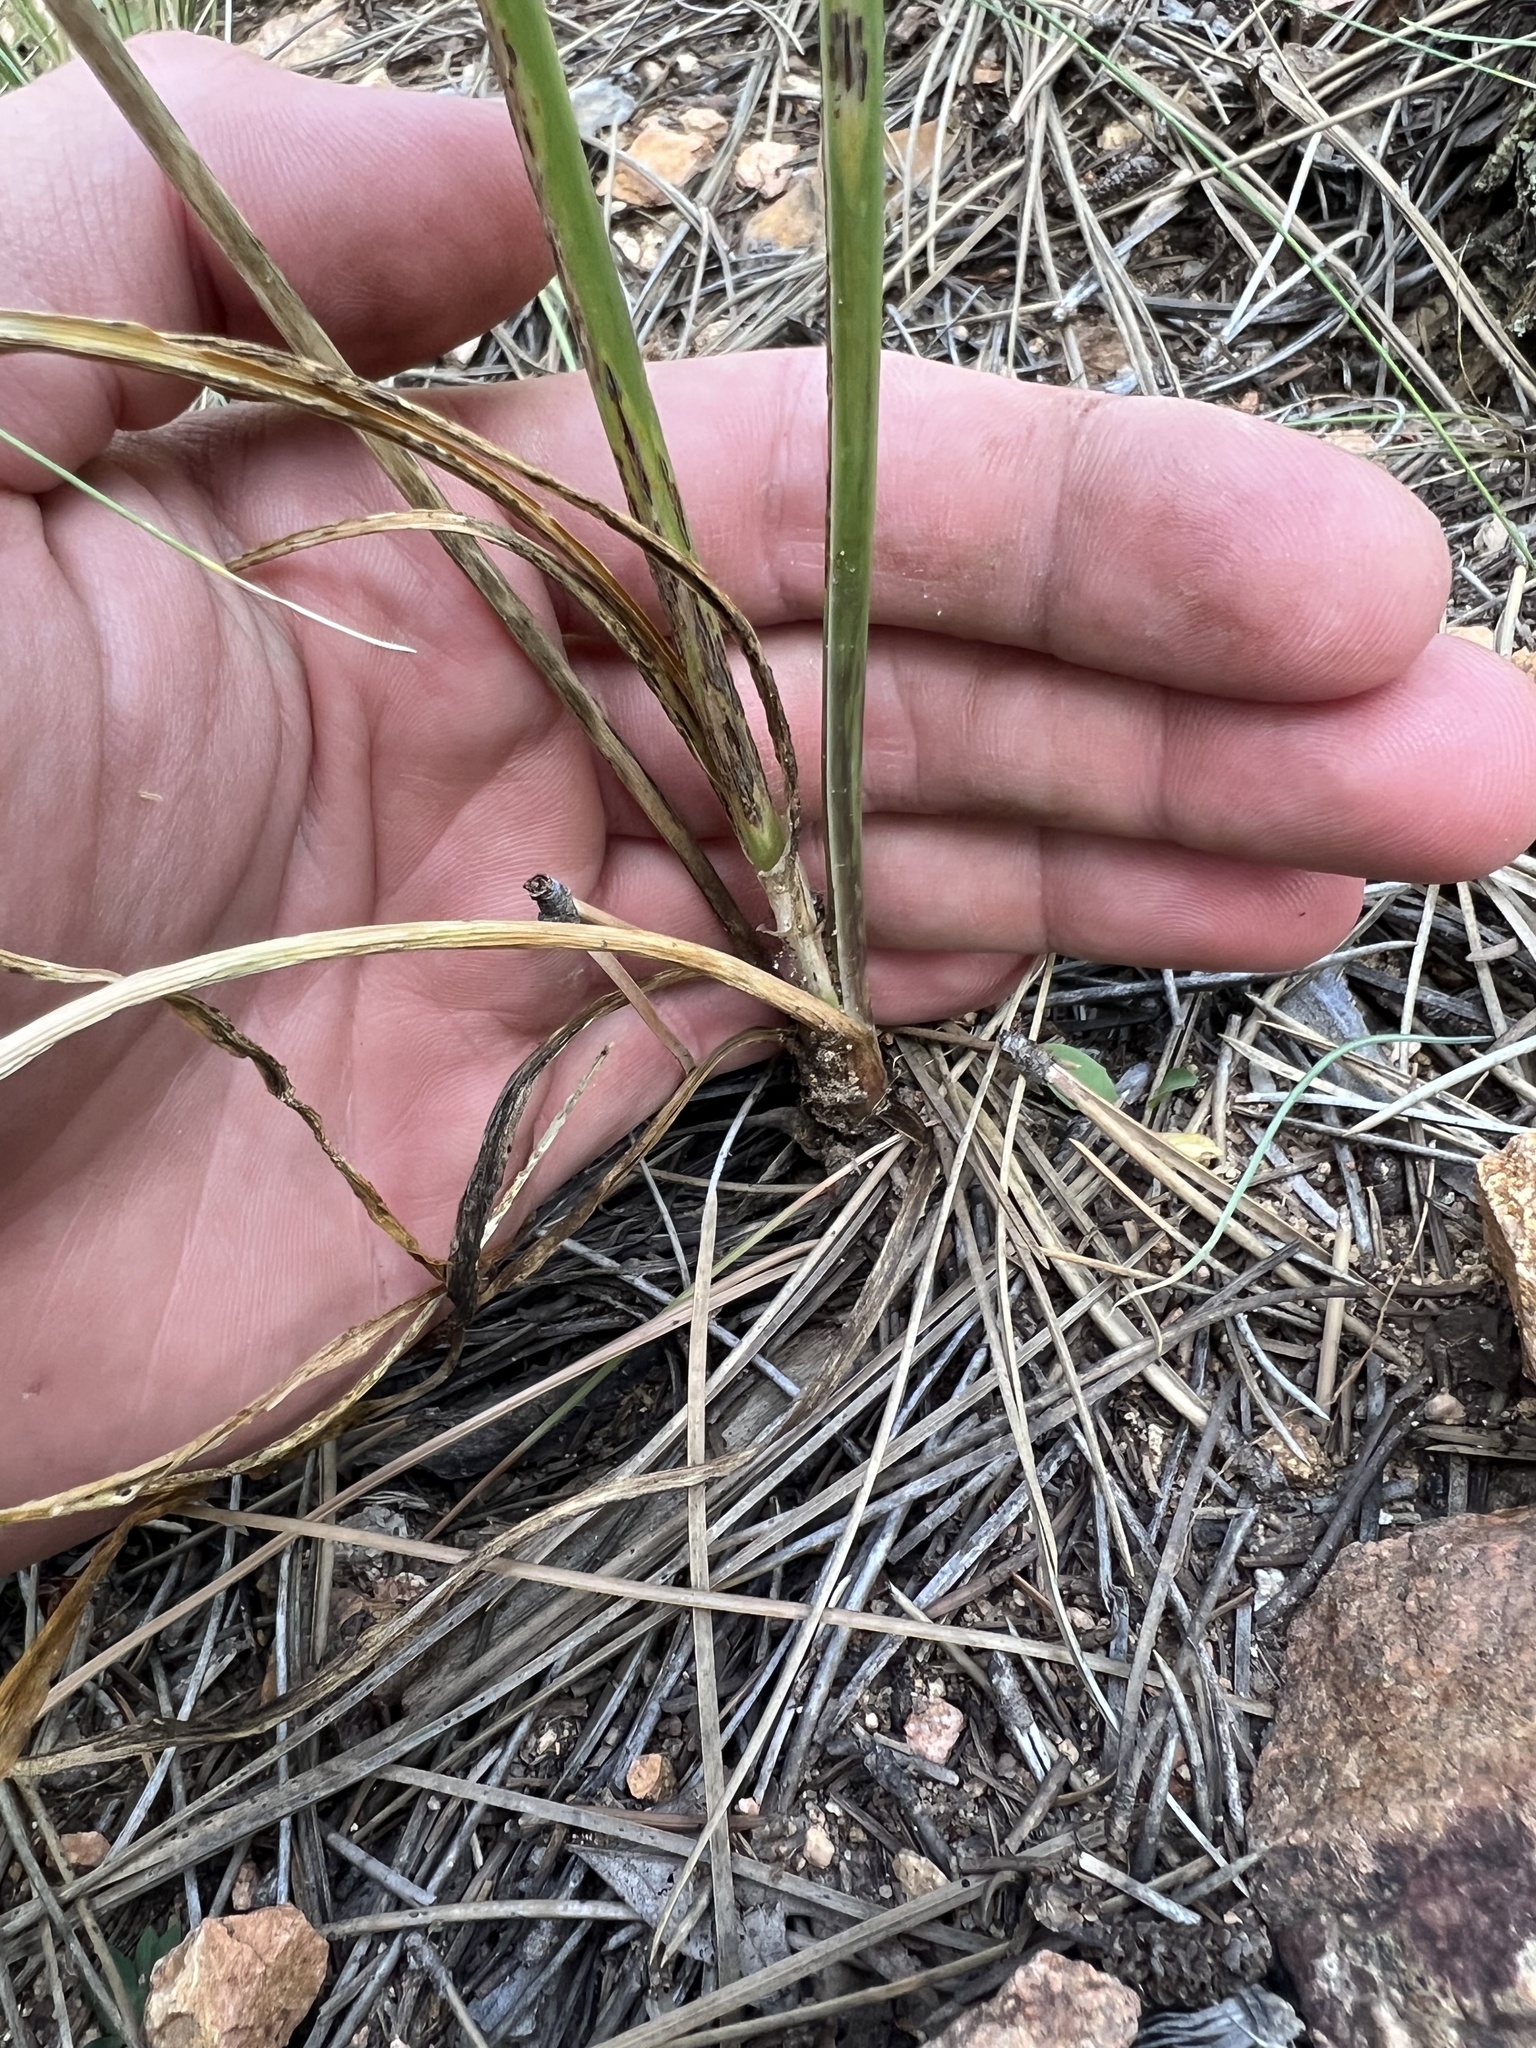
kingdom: Plantae
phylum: Tracheophyta
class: Liliopsida
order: Asparagales
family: Amaryllidaceae
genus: Allium
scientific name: Allium cernuum
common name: Nodding onion
